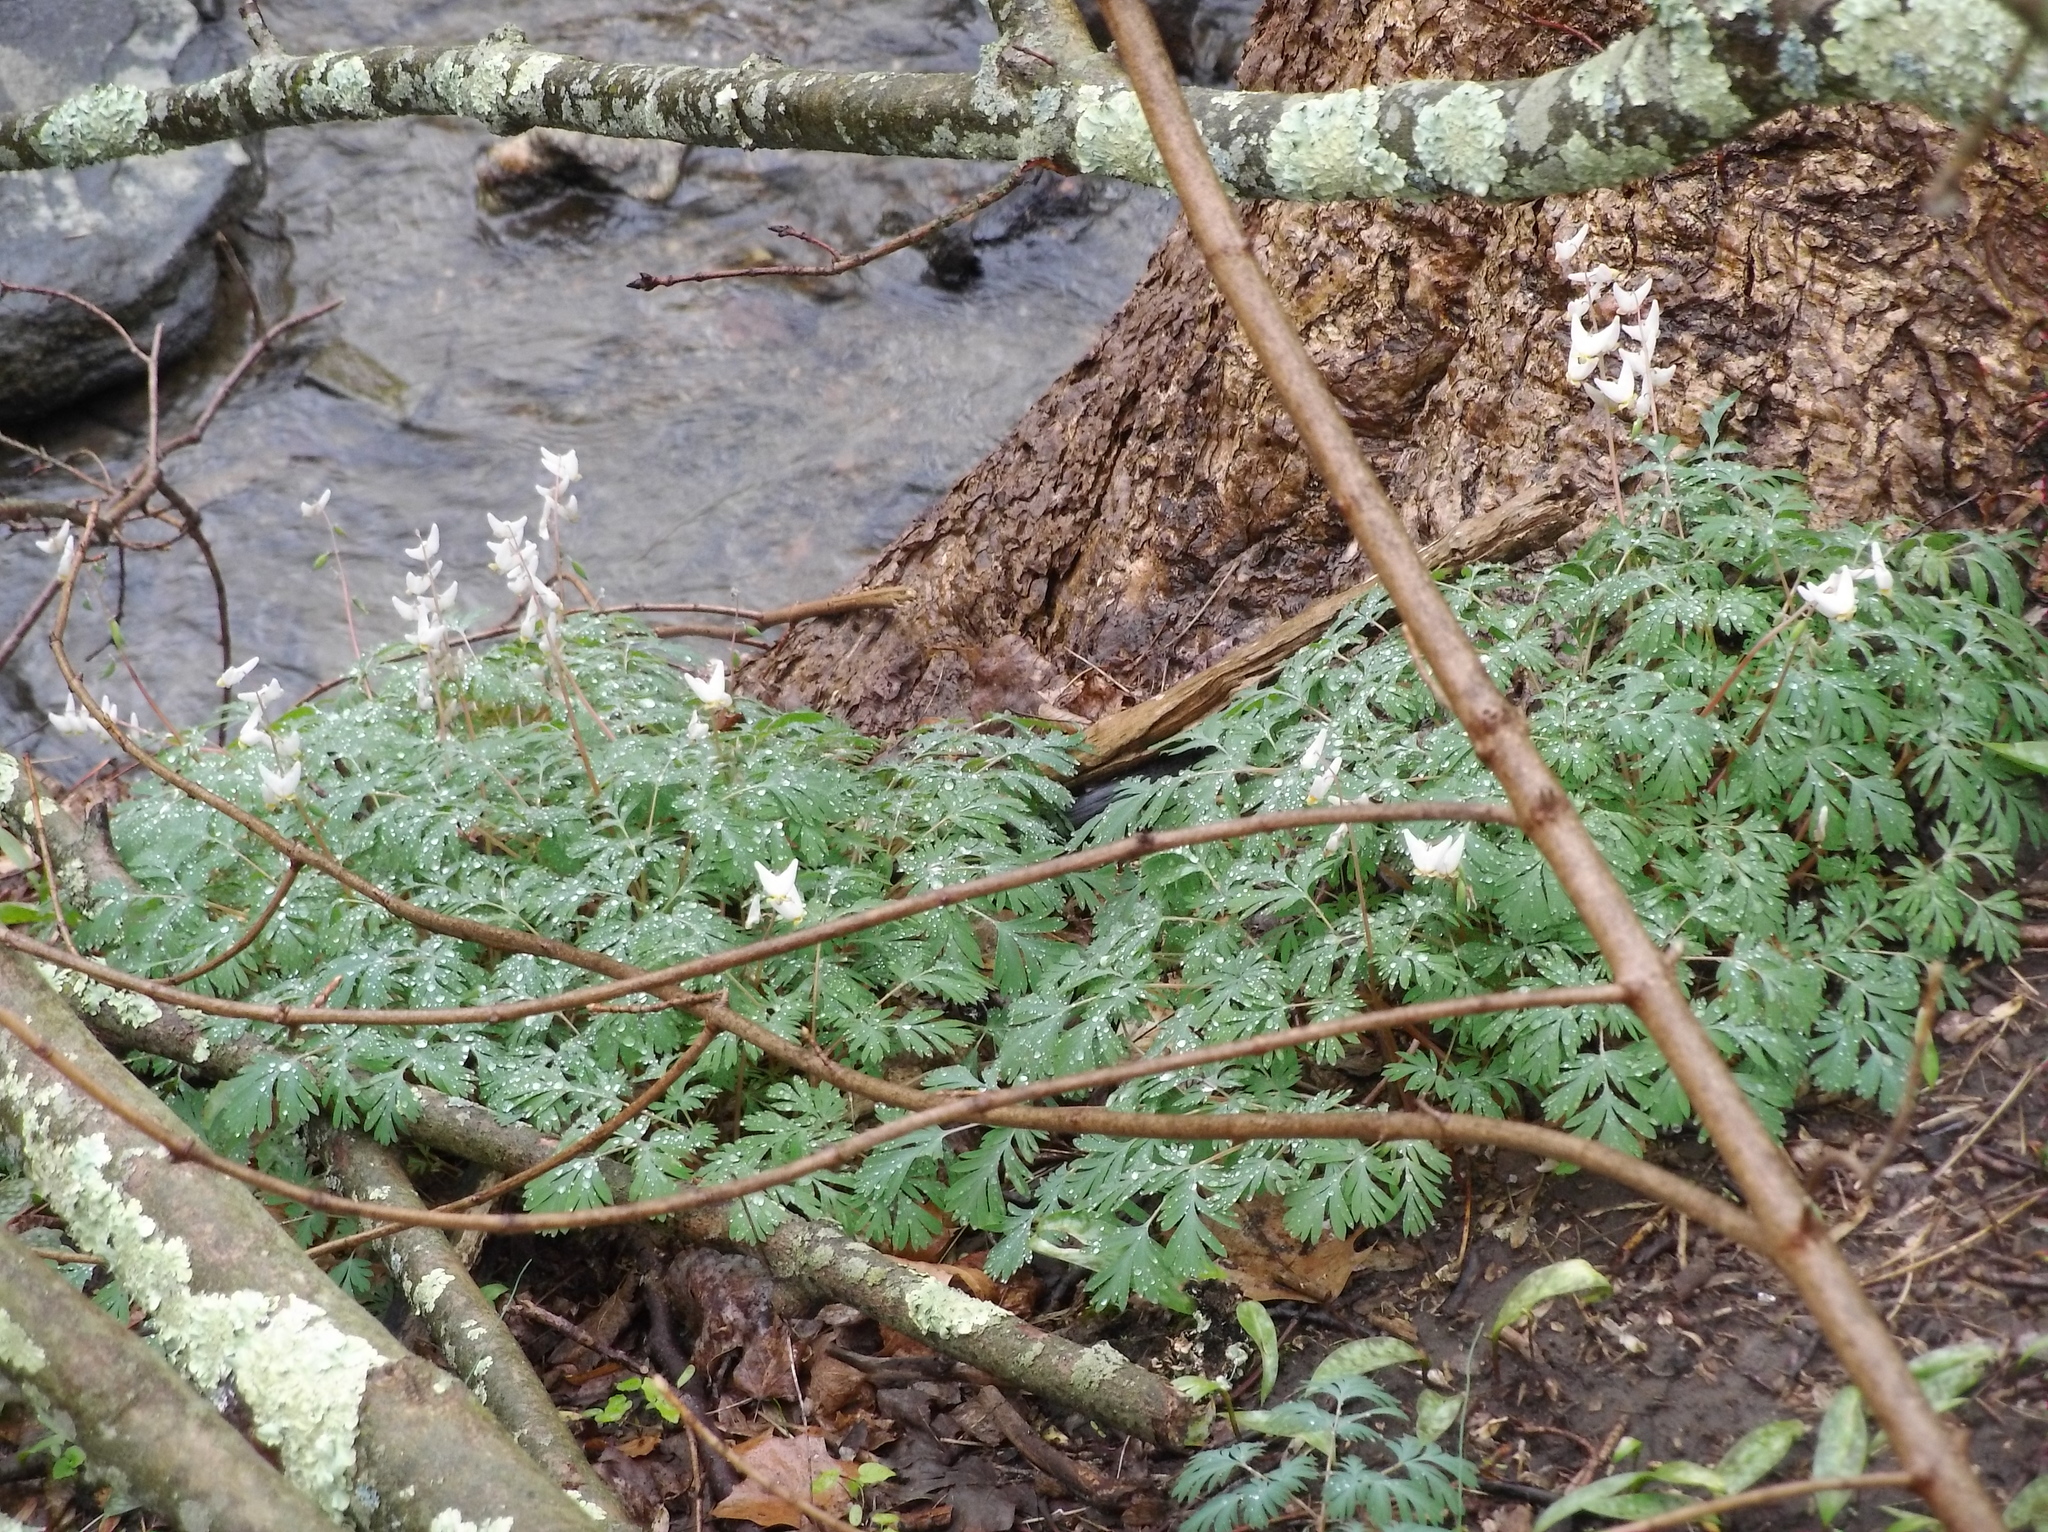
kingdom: Plantae
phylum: Tracheophyta
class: Magnoliopsida
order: Ranunculales
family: Papaveraceae
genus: Dicentra
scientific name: Dicentra cucullaria
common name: Dutchman's breeches
